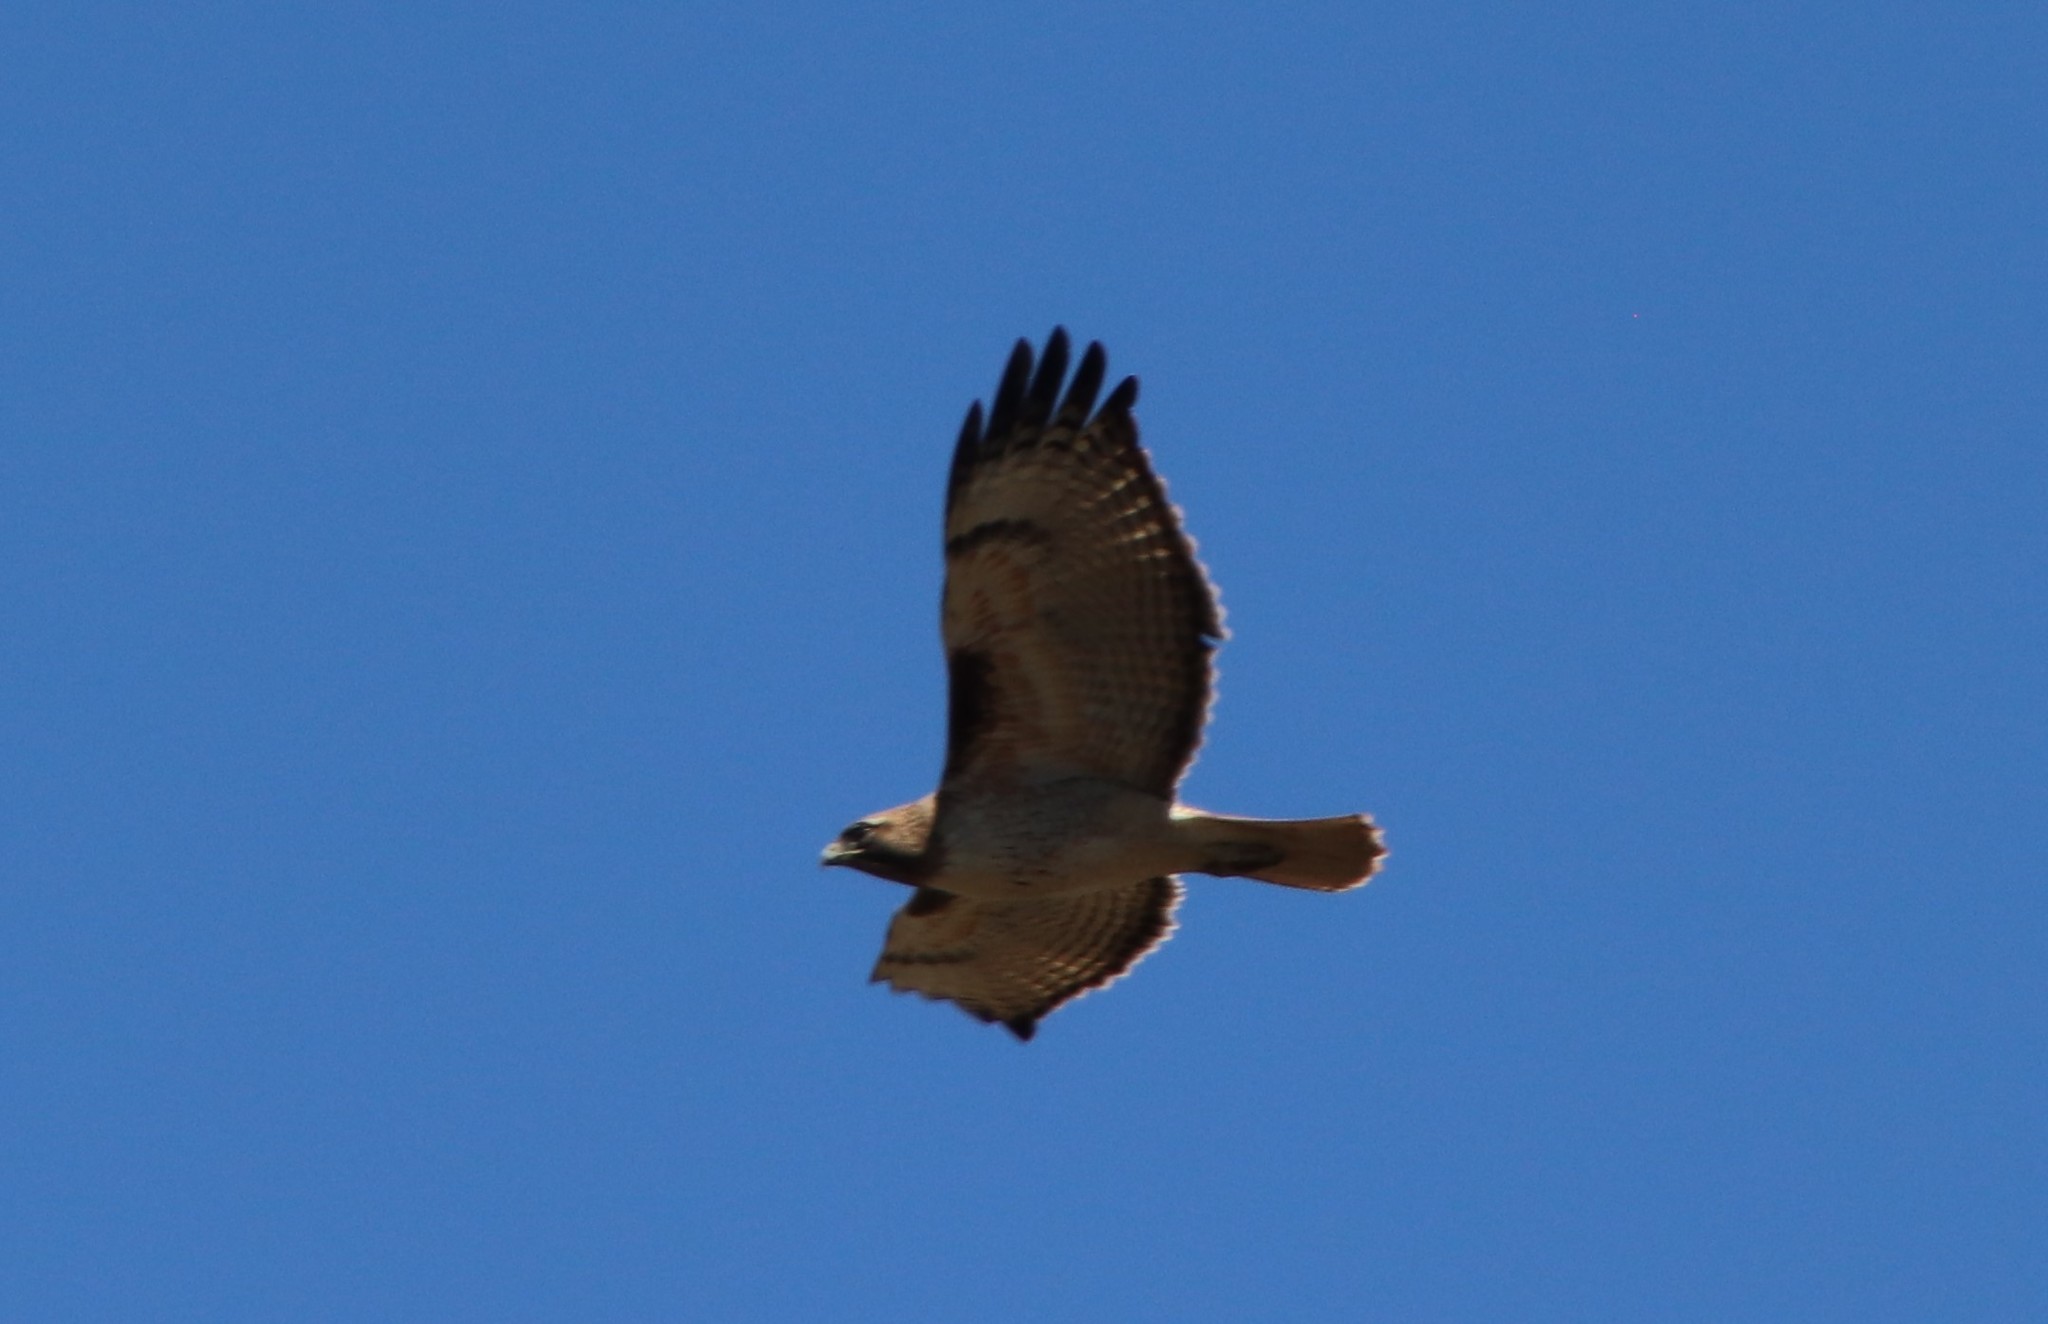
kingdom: Animalia
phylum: Chordata
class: Aves
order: Accipitriformes
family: Accipitridae
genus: Buteo
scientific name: Buteo jamaicensis
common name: Red-tailed hawk
